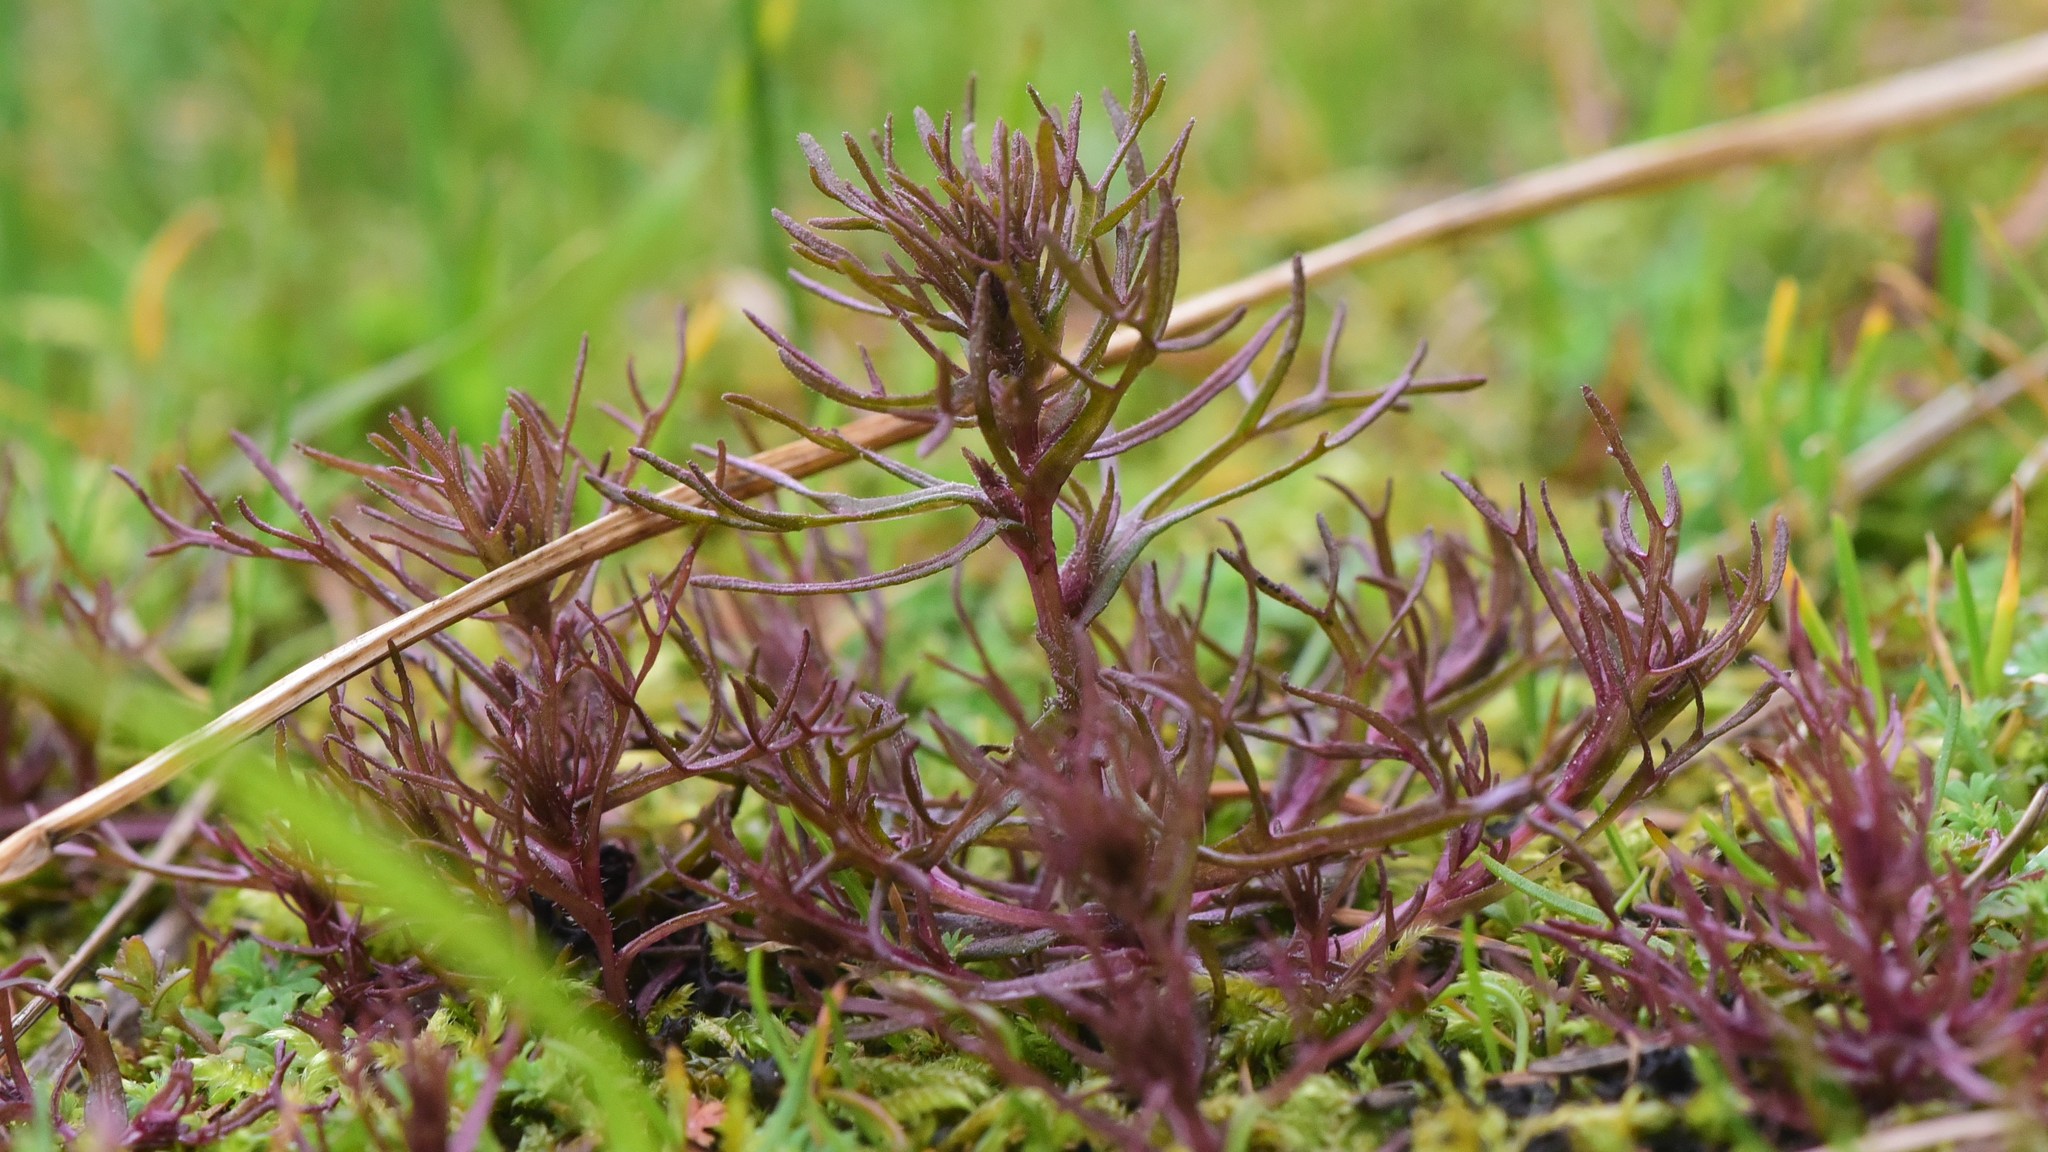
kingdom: Plantae
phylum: Tracheophyta
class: Magnoliopsida
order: Lamiales
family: Orobanchaceae
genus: Triphysaria
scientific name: Triphysaria pusilla
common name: Dwarf false owl-clover
